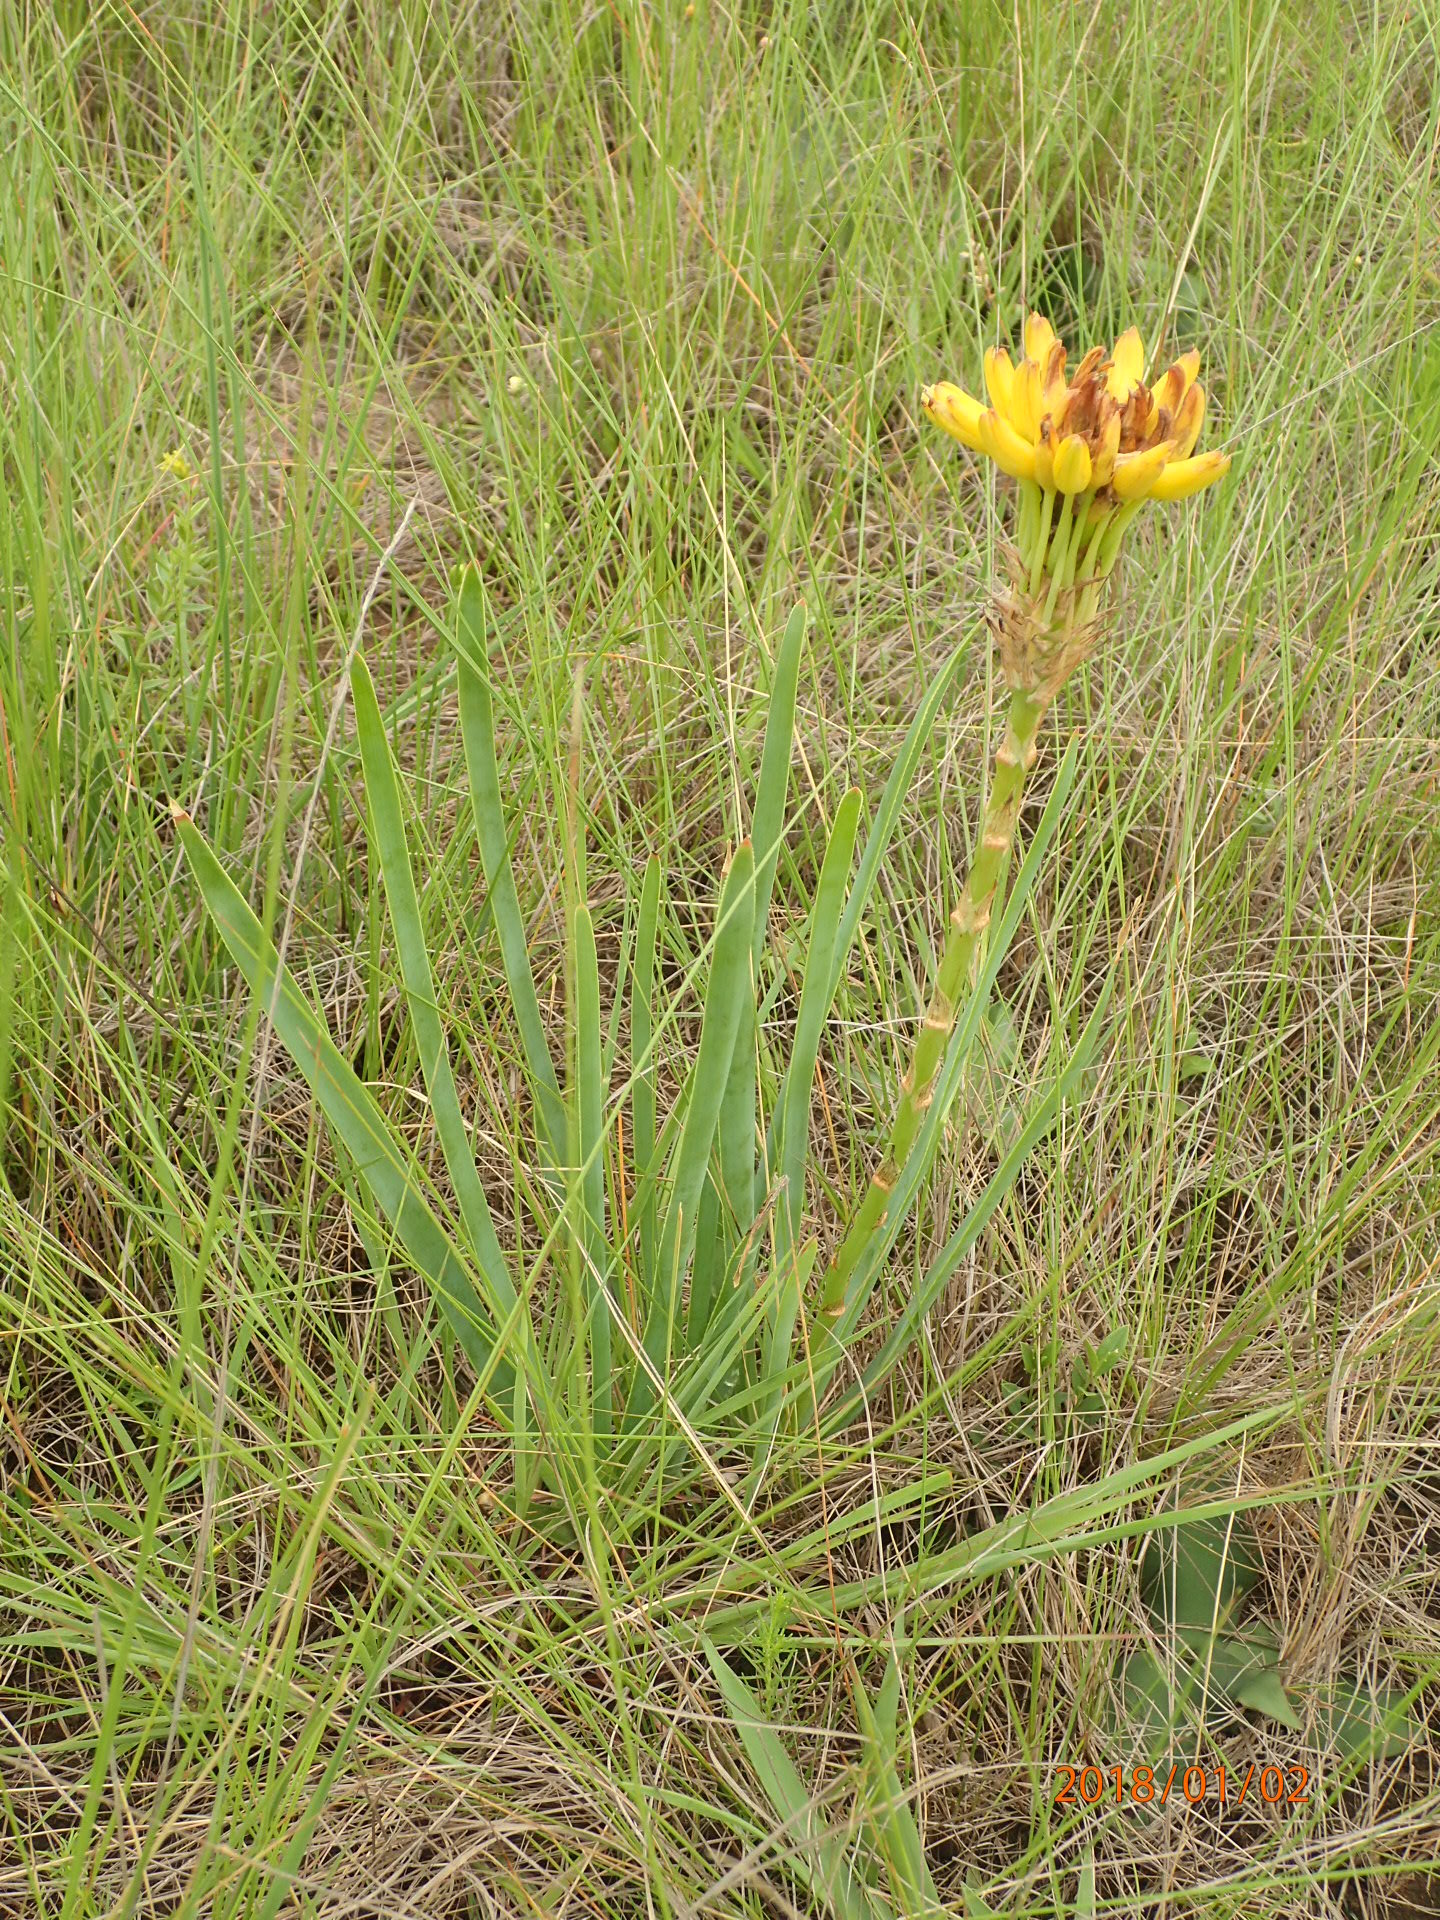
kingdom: Plantae
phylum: Tracheophyta
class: Liliopsida
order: Asparagales
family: Asphodelaceae
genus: Aloe
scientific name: Aloe kraussii
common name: Broad-leaved yellow grass aloe
